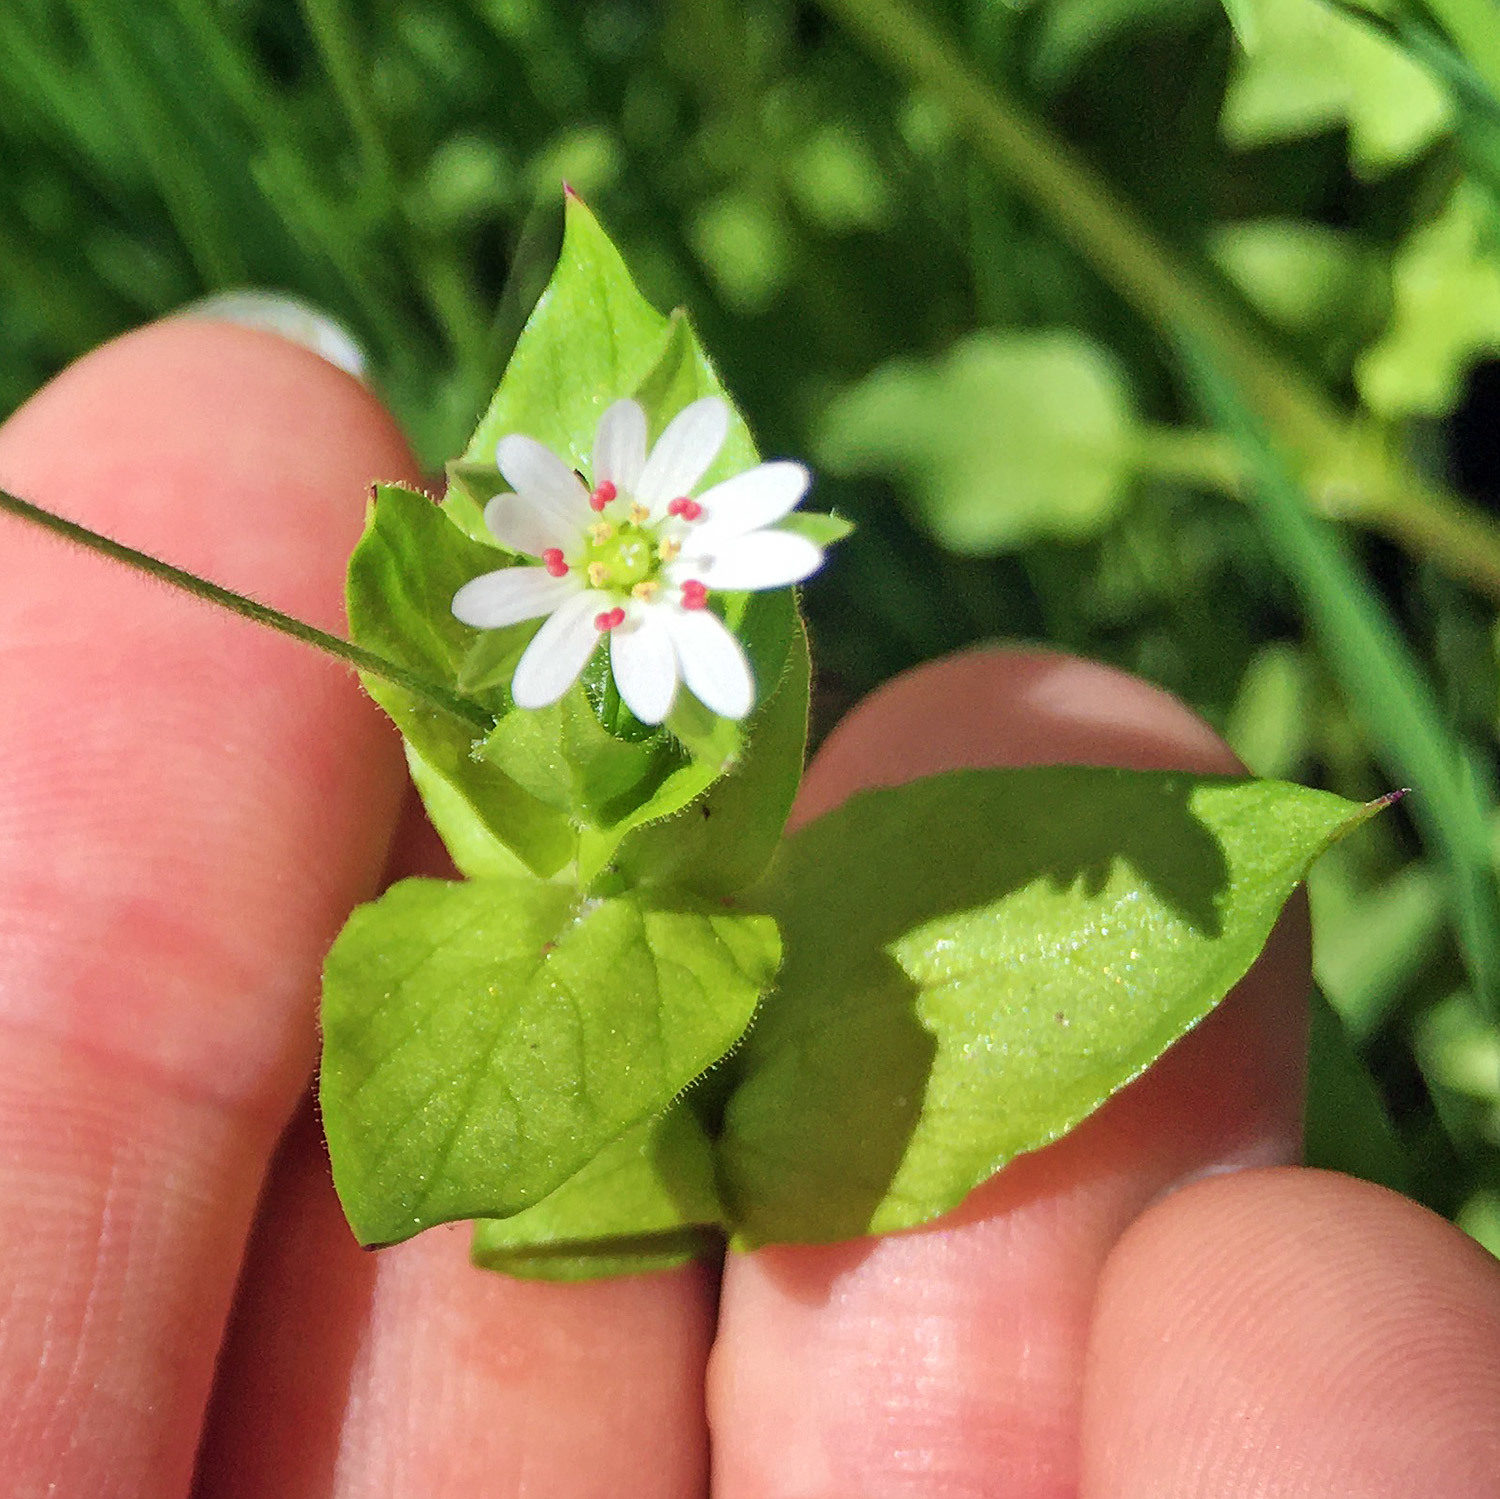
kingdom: Plantae
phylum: Tracheophyta
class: Magnoliopsida
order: Caryophyllales
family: Caryophyllaceae
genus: Stellaria
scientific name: Stellaria media
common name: Common chickweed
